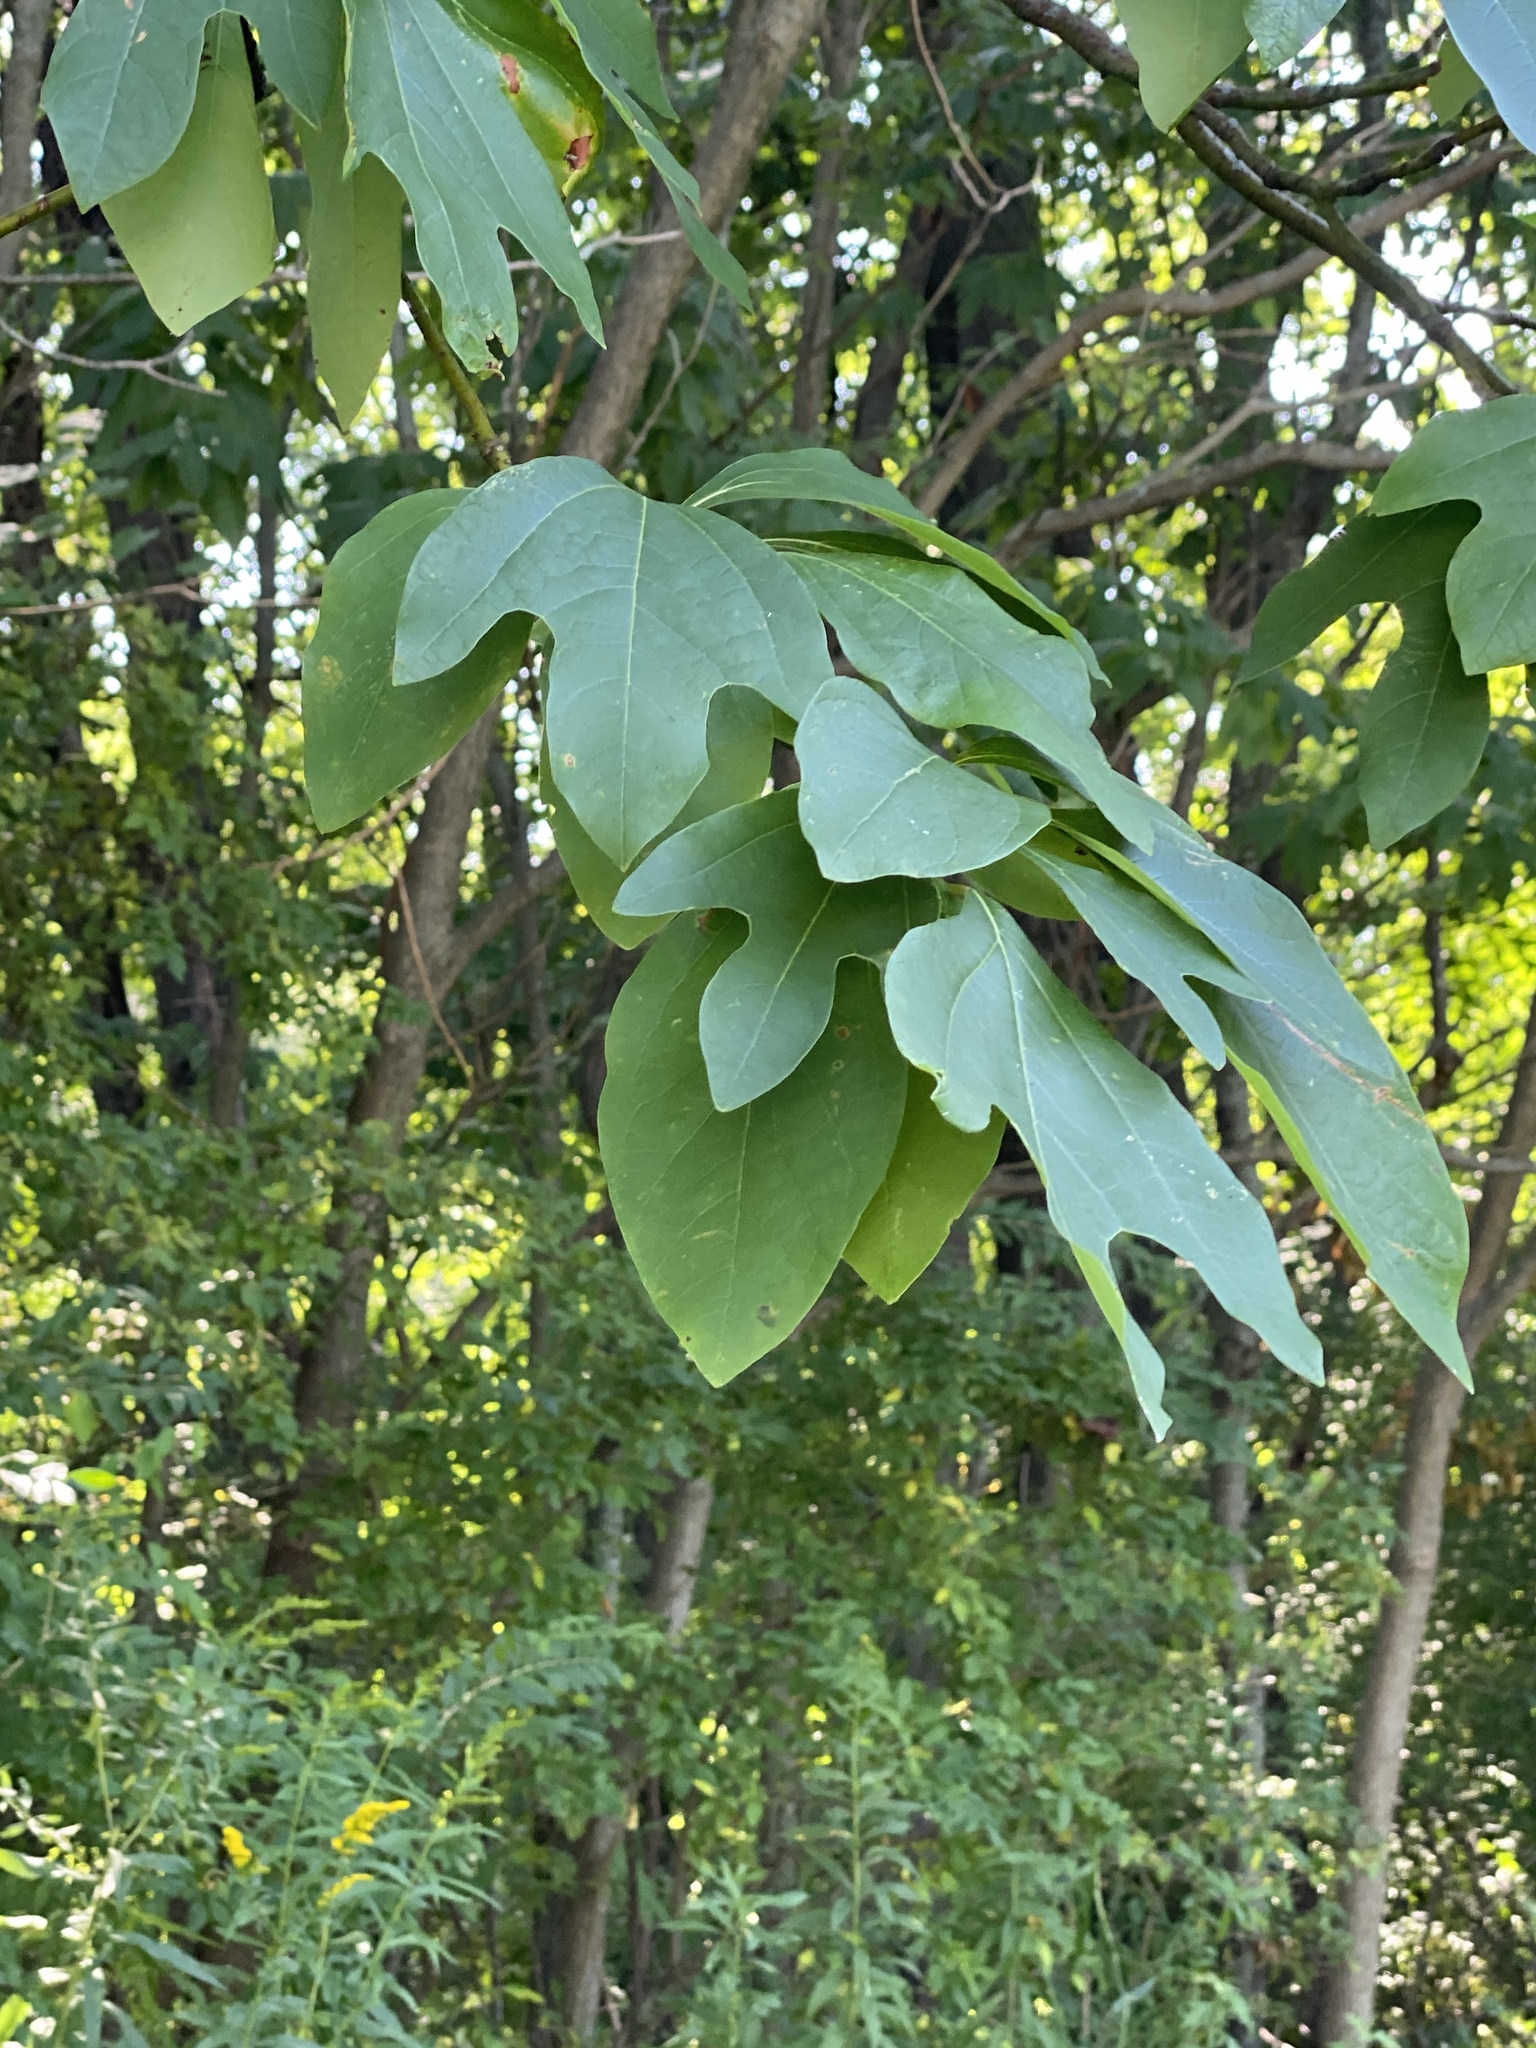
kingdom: Plantae
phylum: Tracheophyta
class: Magnoliopsida
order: Laurales
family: Lauraceae
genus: Sassafras
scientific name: Sassafras albidum
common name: Sassafras
